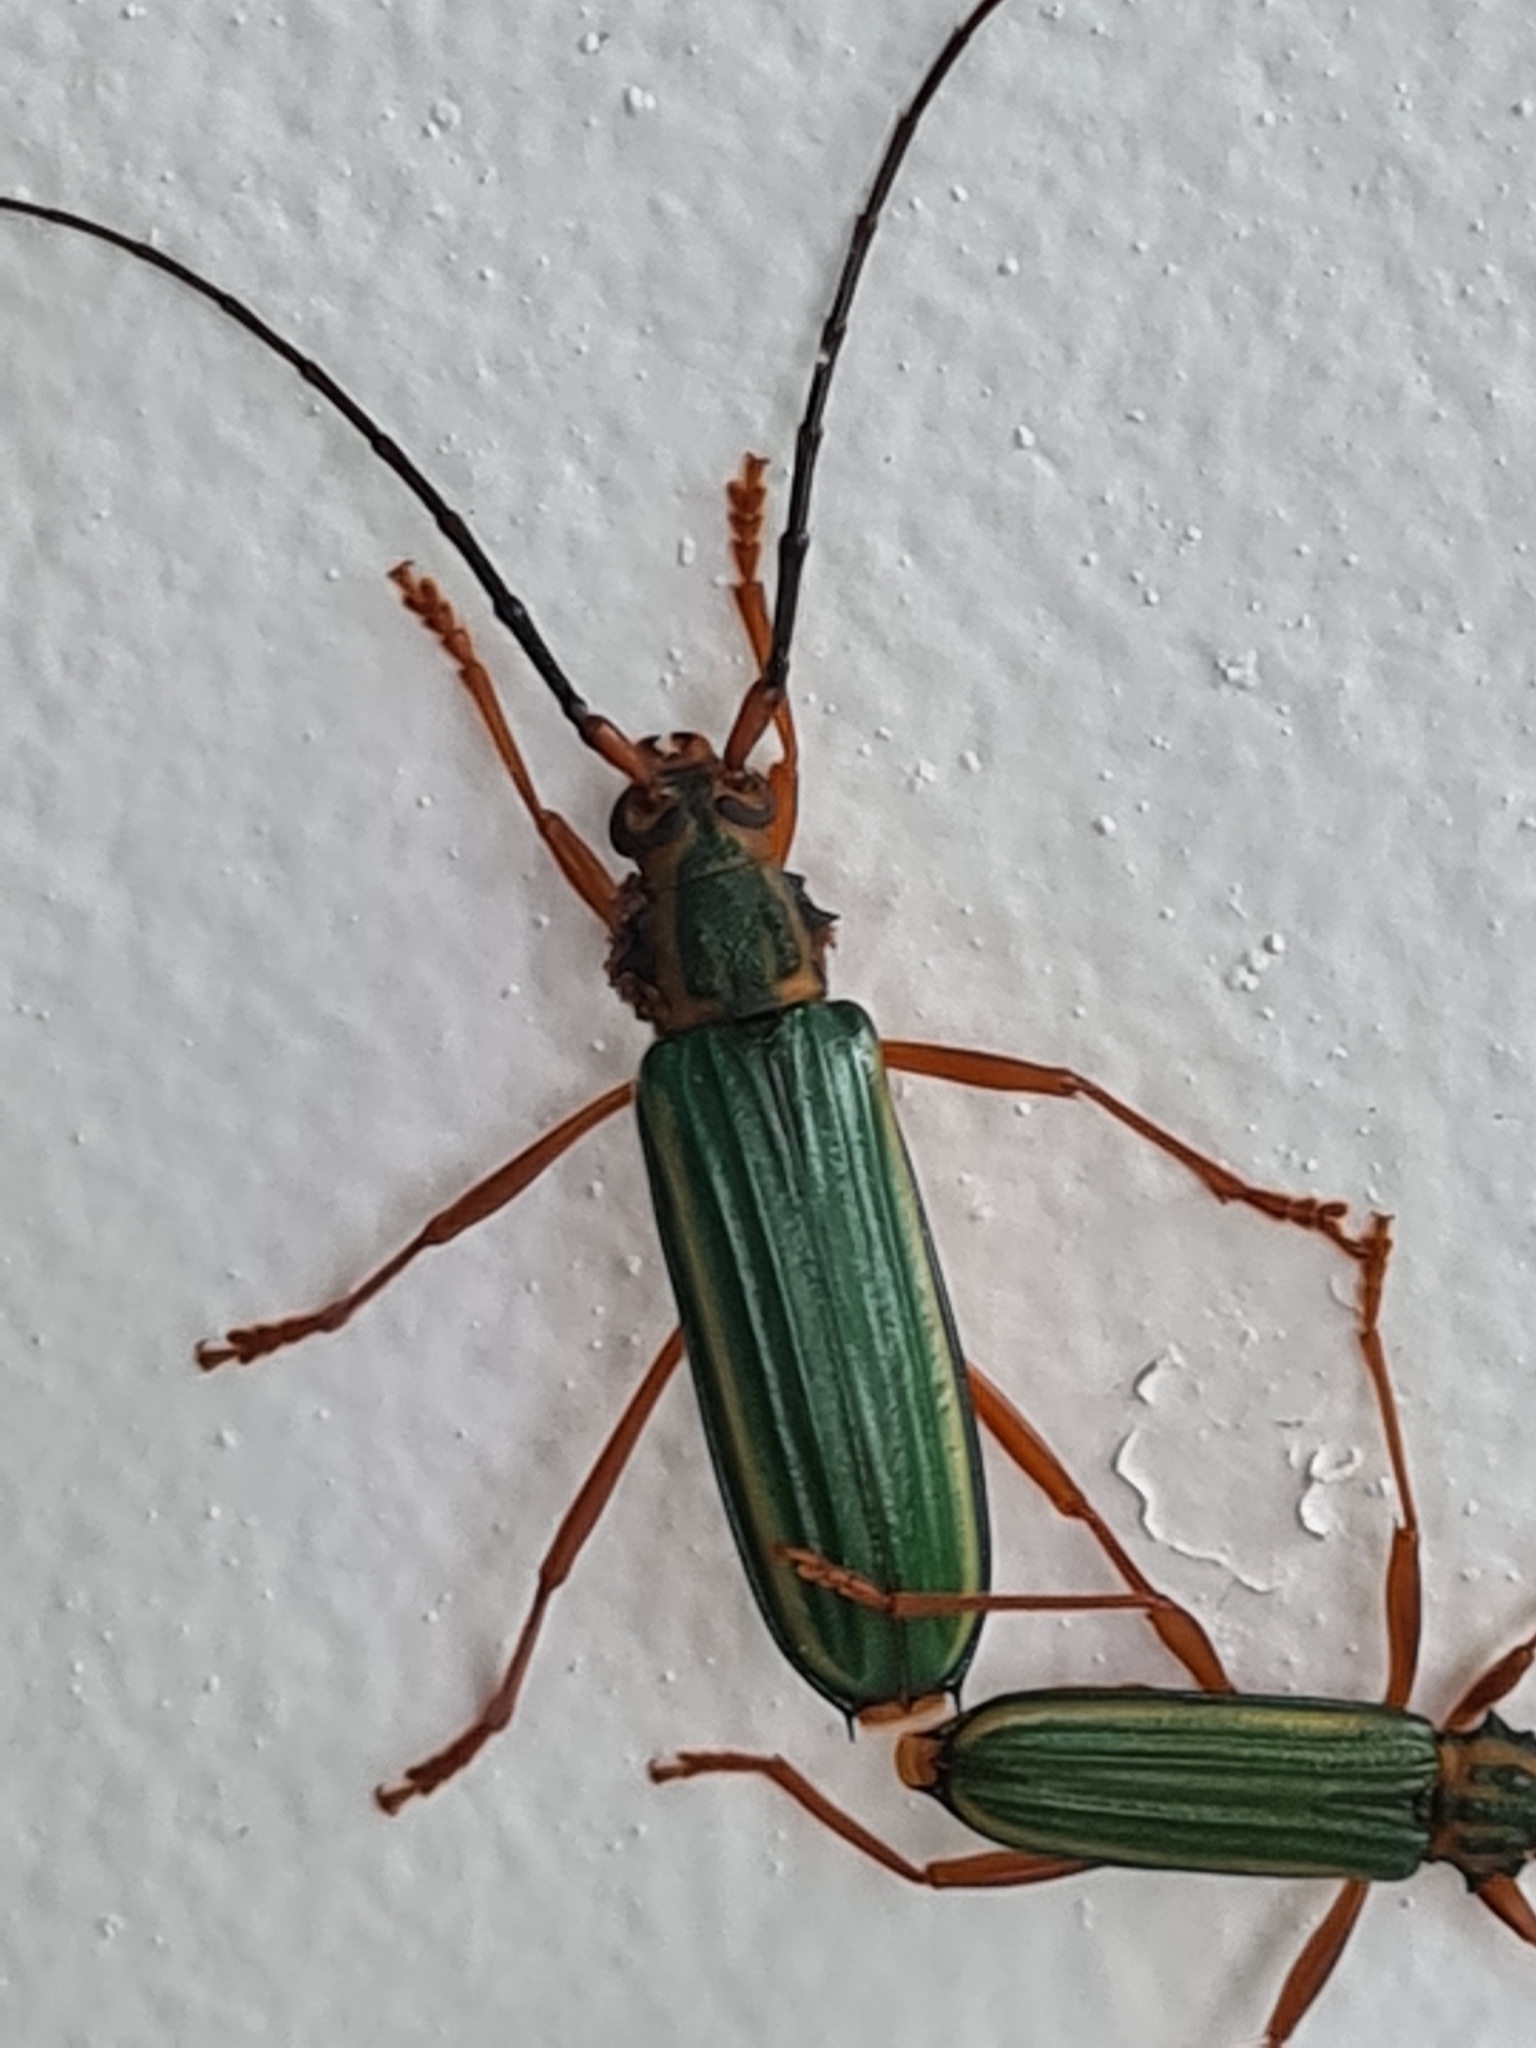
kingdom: Animalia
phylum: Arthropoda
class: Insecta
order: Coleoptera
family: Cerambycidae
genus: Chlorida
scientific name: Chlorida festiva
